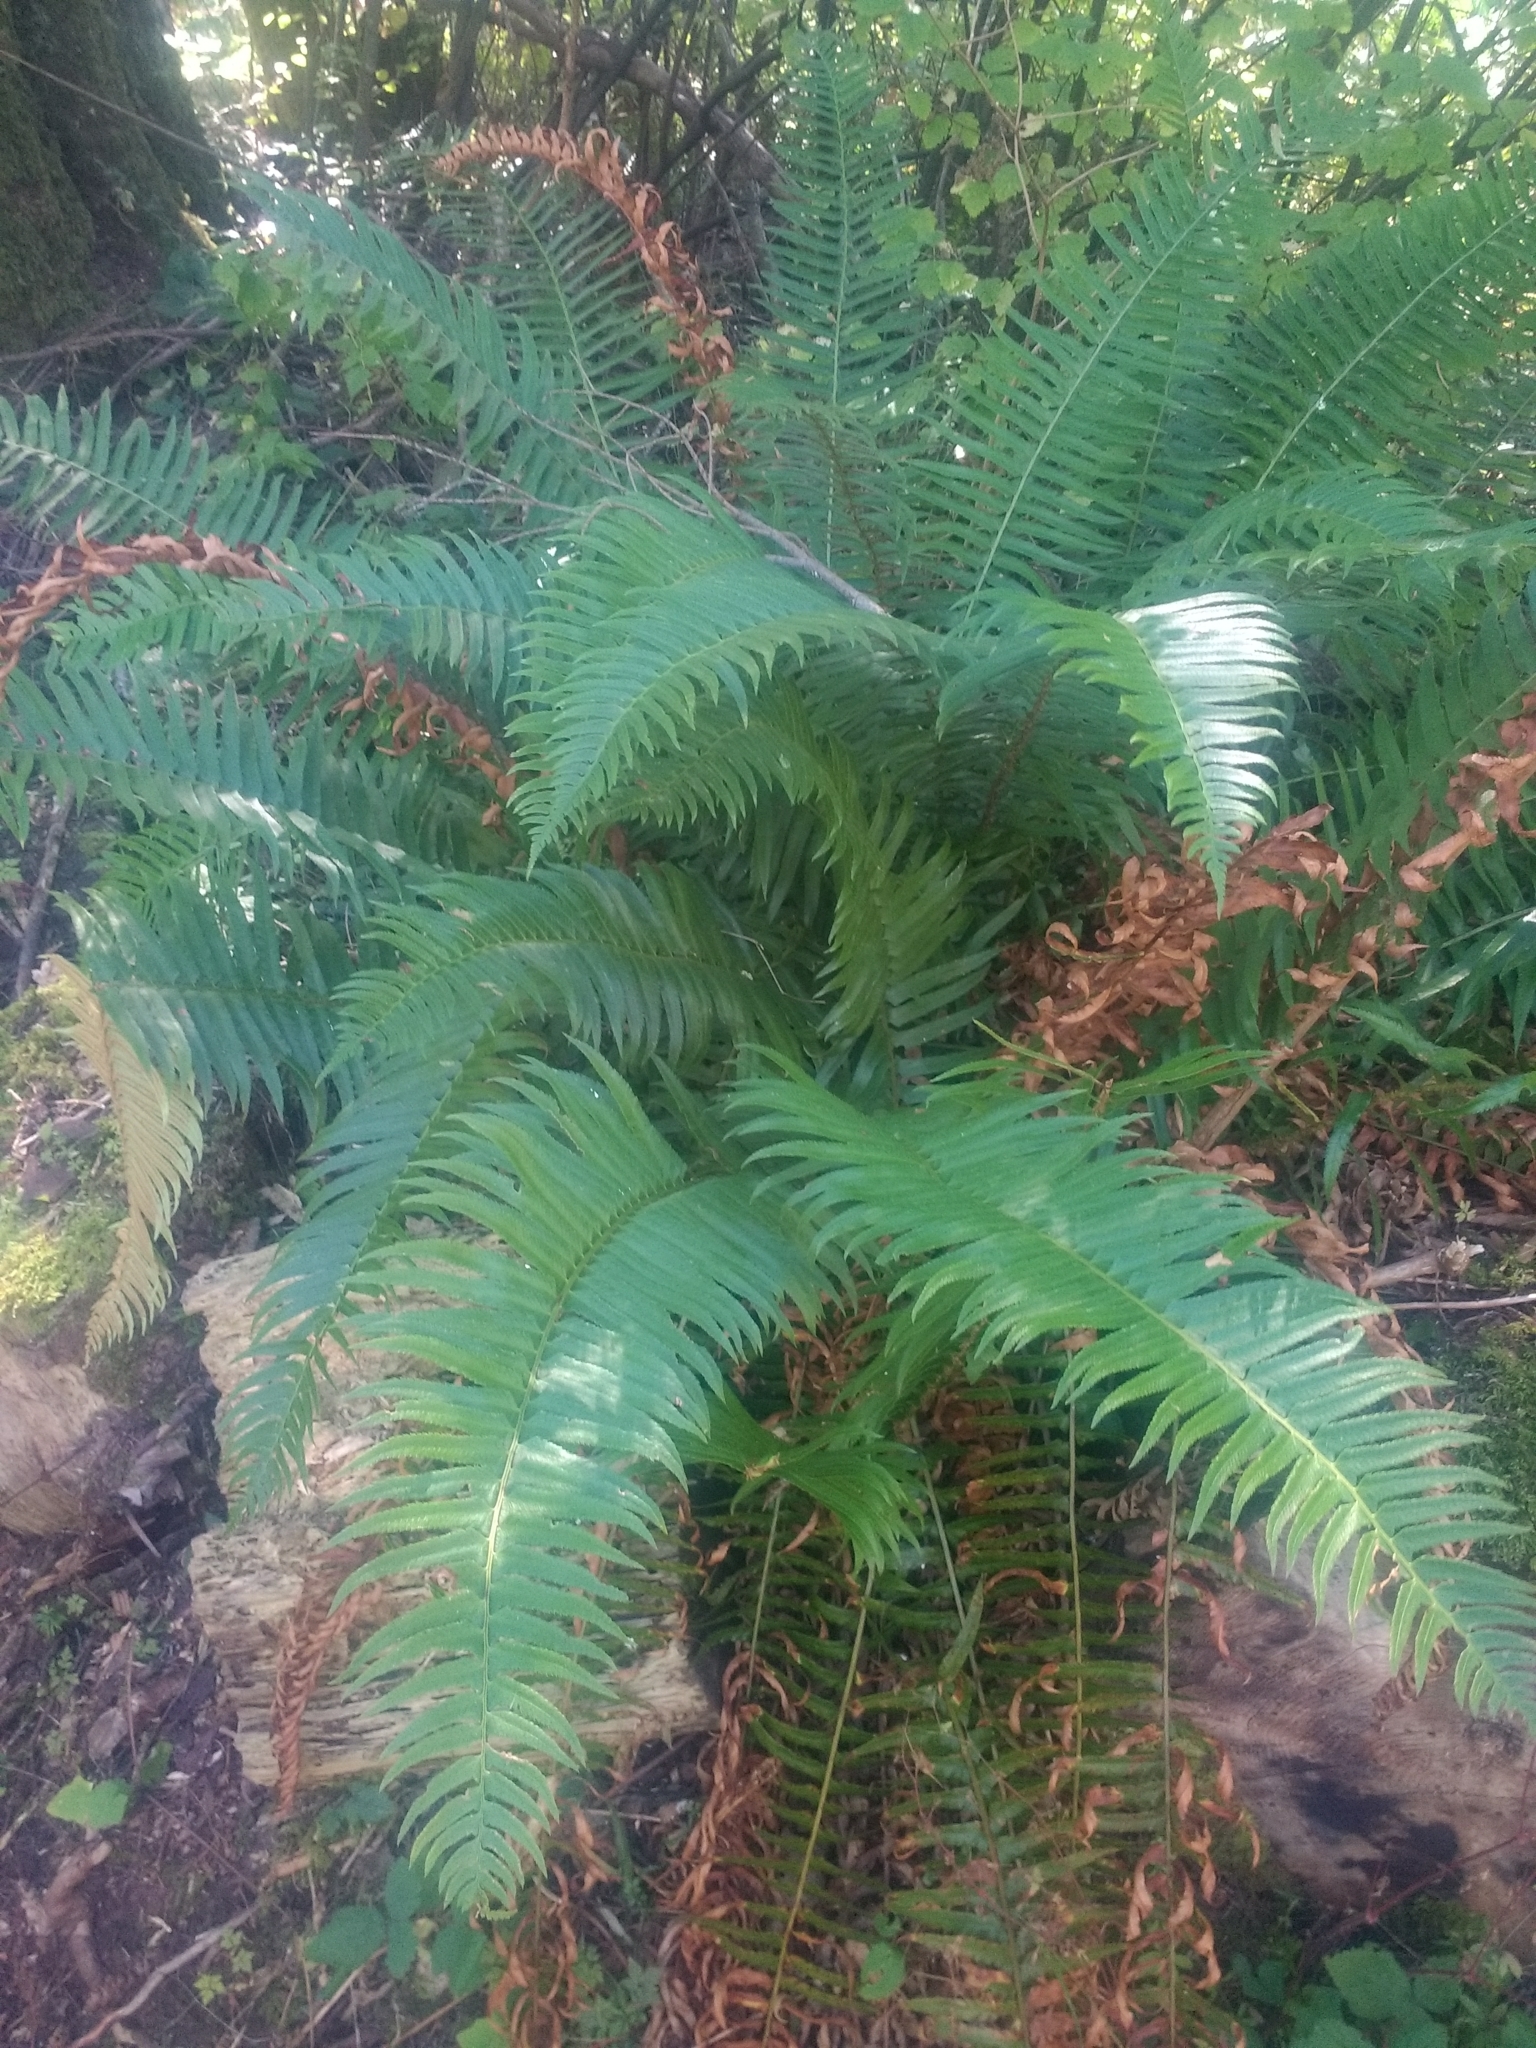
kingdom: Plantae
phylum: Tracheophyta
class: Polypodiopsida
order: Polypodiales
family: Dryopteridaceae
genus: Polystichum
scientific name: Polystichum munitum
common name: Western sword-fern
